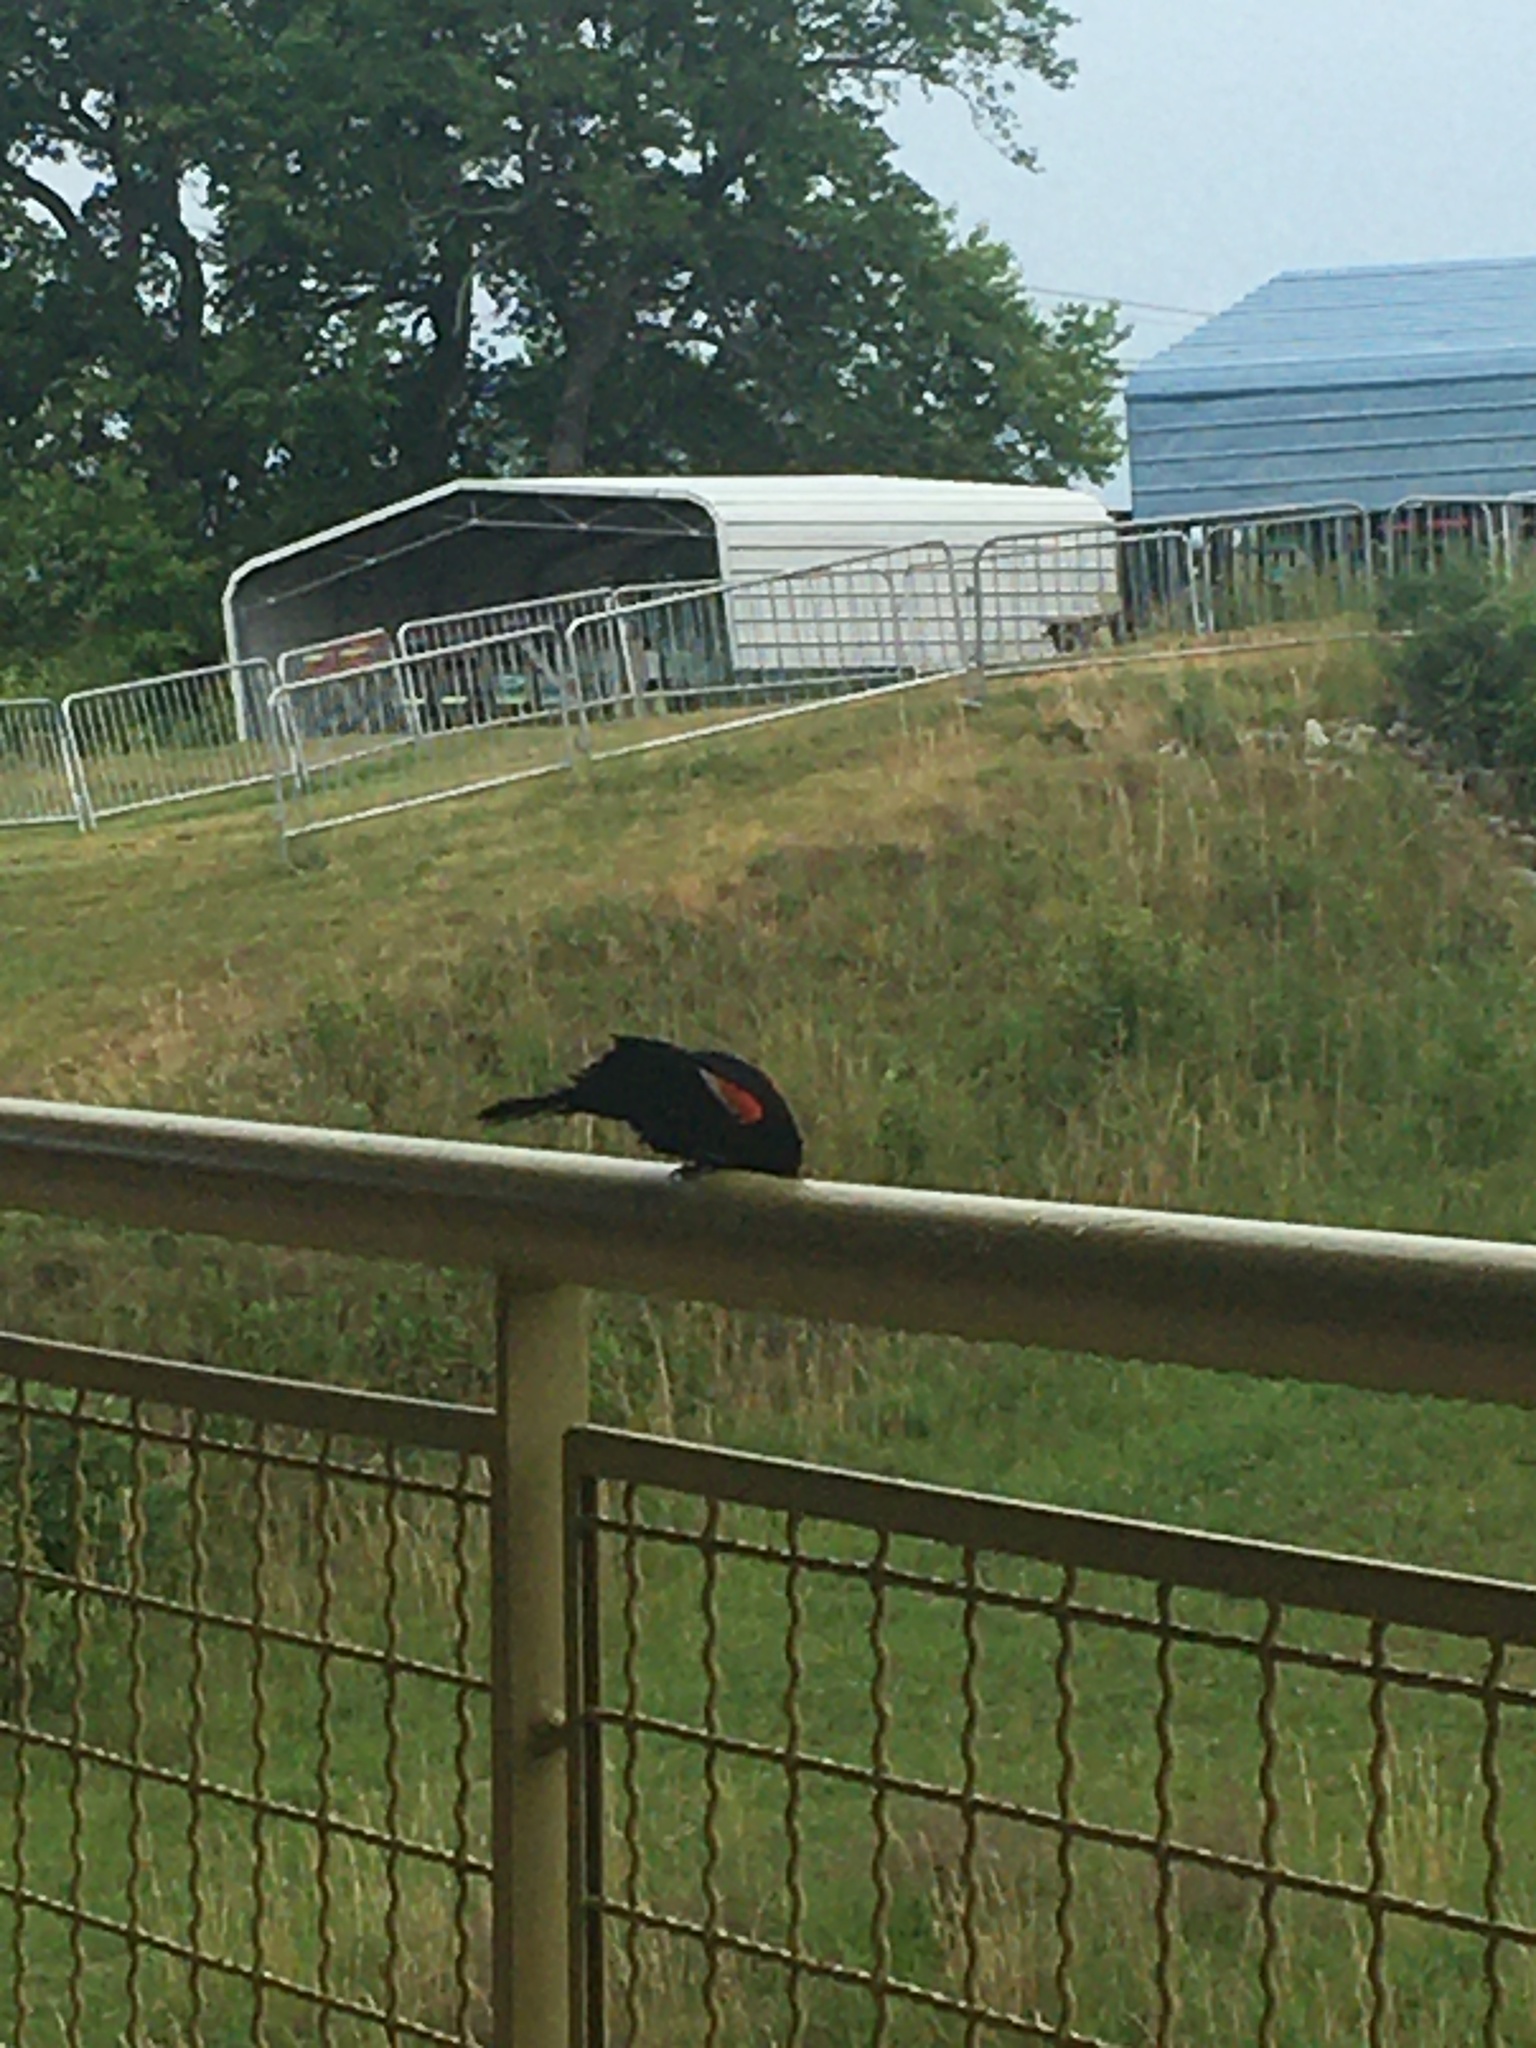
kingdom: Animalia
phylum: Chordata
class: Aves
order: Passeriformes
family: Icteridae
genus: Agelaius
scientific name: Agelaius phoeniceus
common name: Red-winged blackbird
